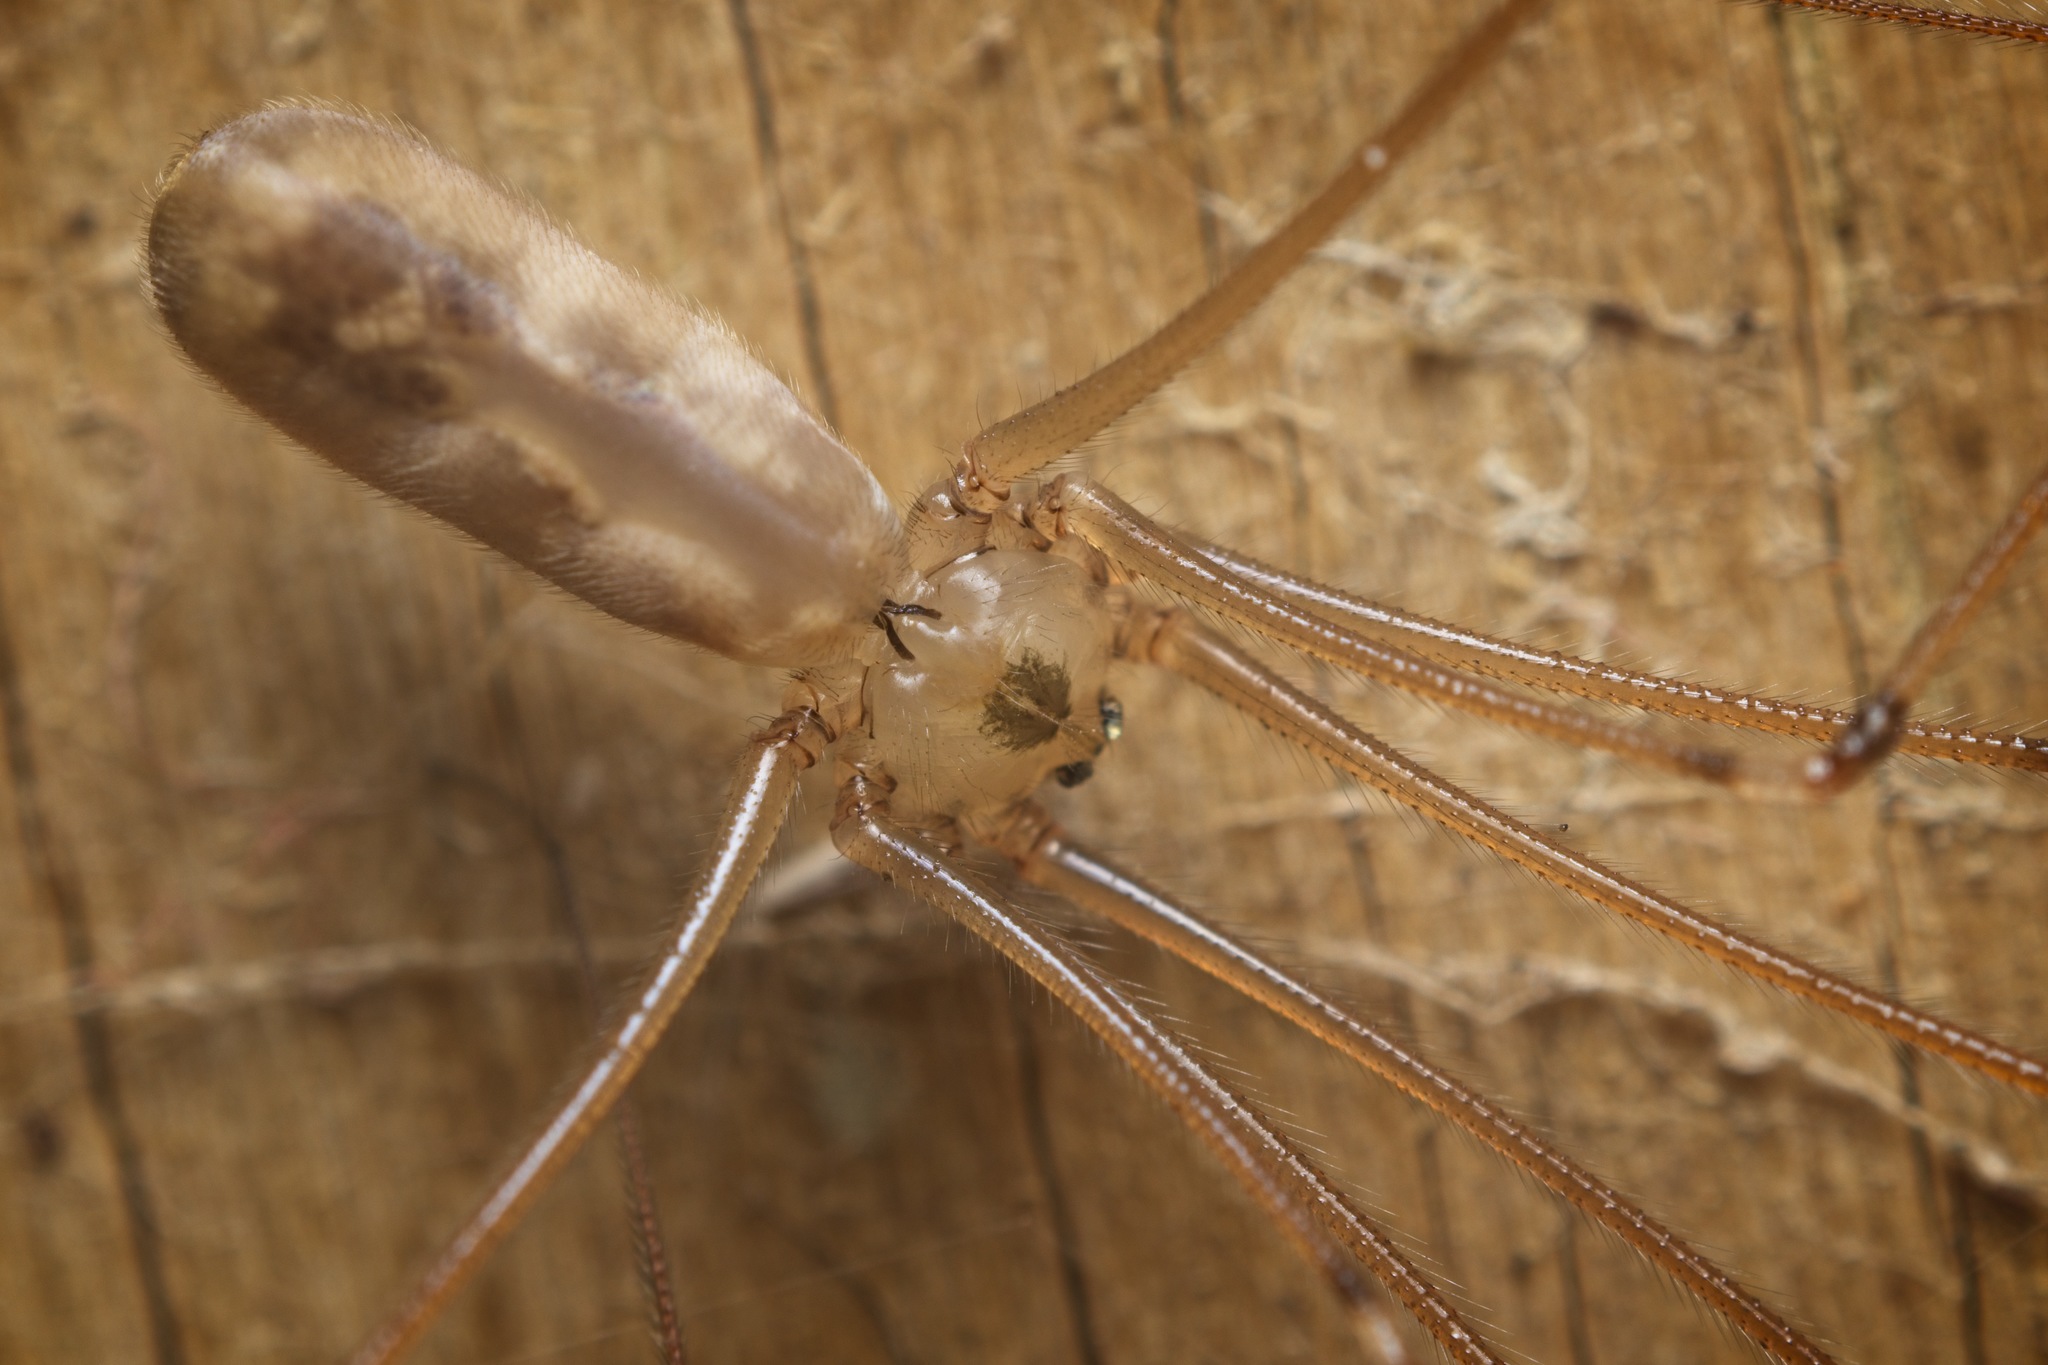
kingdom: Animalia
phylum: Arthropoda
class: Arachnida
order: Araneae
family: Pholcidae
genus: Pholcus
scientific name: Pholcus phalangioides
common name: Longbodied cellar spider
